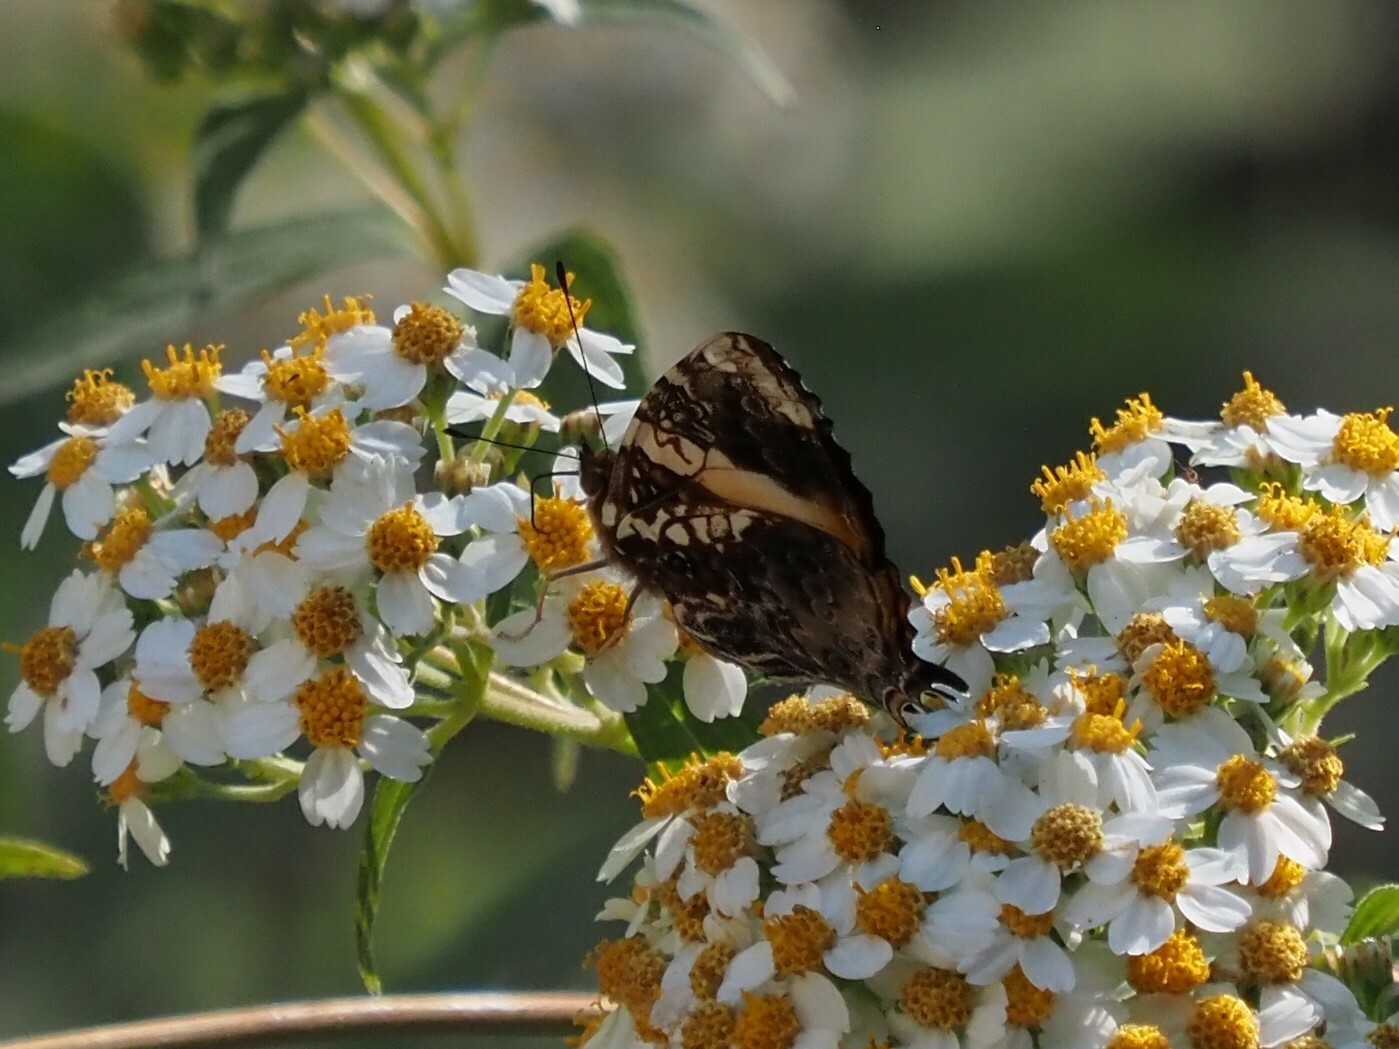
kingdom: Animalia
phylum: Arthropoda
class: Insecta
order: Lepidoptera
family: Nymphalidae
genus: Hypanartia
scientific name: Hypanartia godmanii
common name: Godman's mapwing
